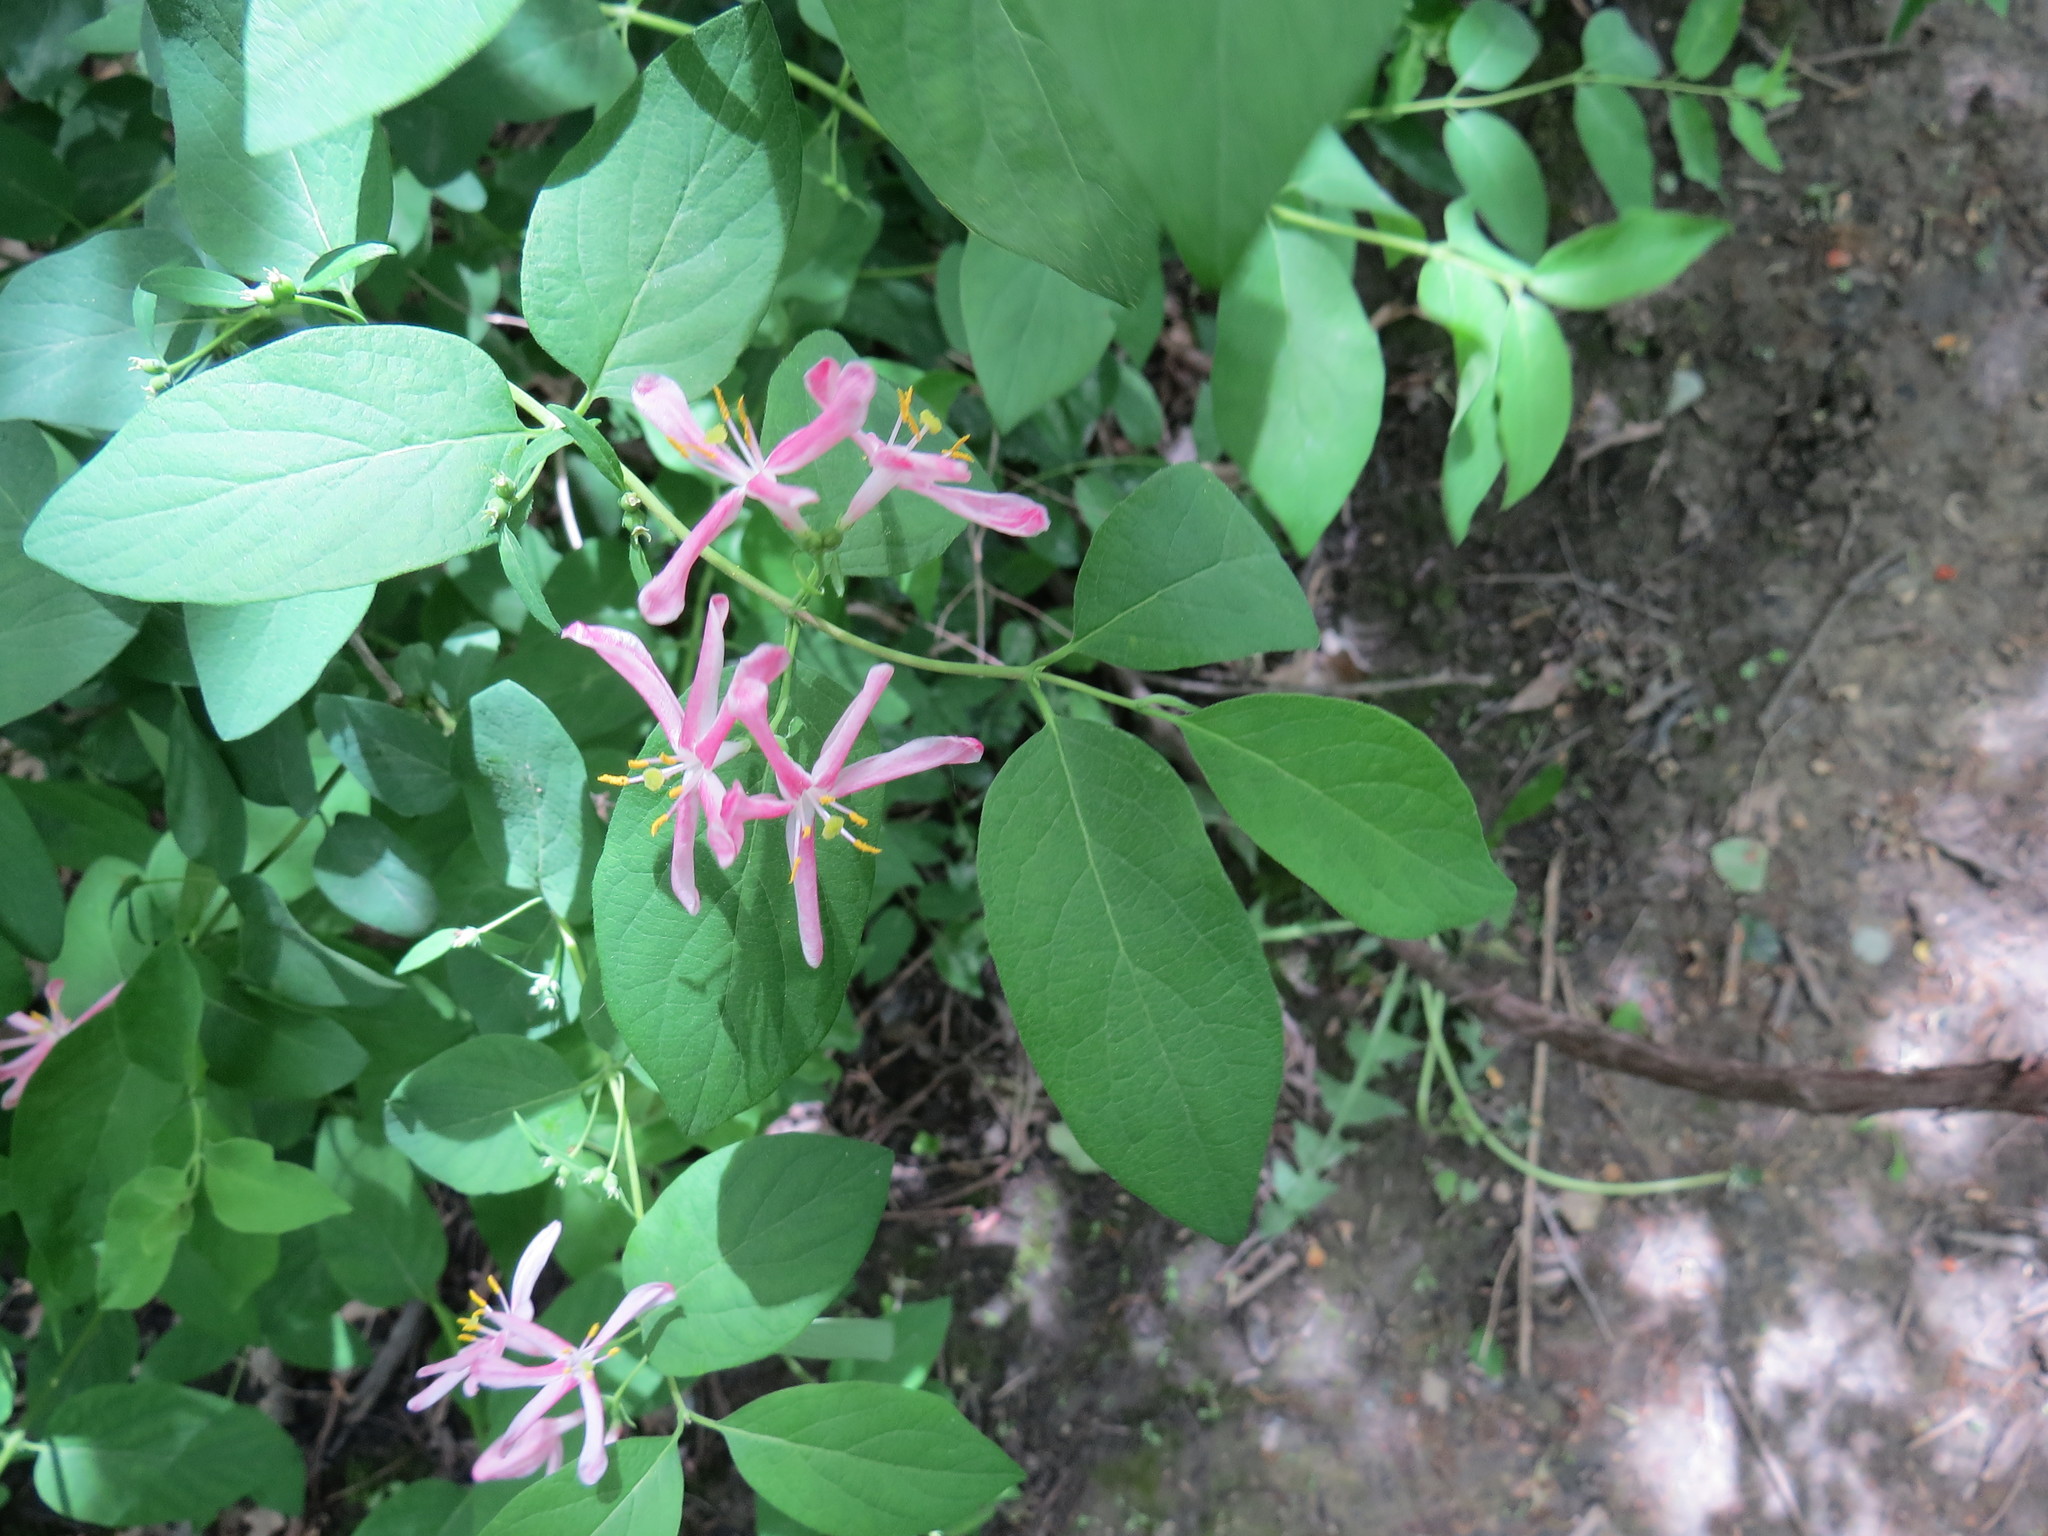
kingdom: Plantae
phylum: Tracheophyta
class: Magnoliopsida
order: Dipsacales
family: Caprifoliaceae
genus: Lonicera
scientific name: Lonicera tatarica
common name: Tatarian honeysuckle
